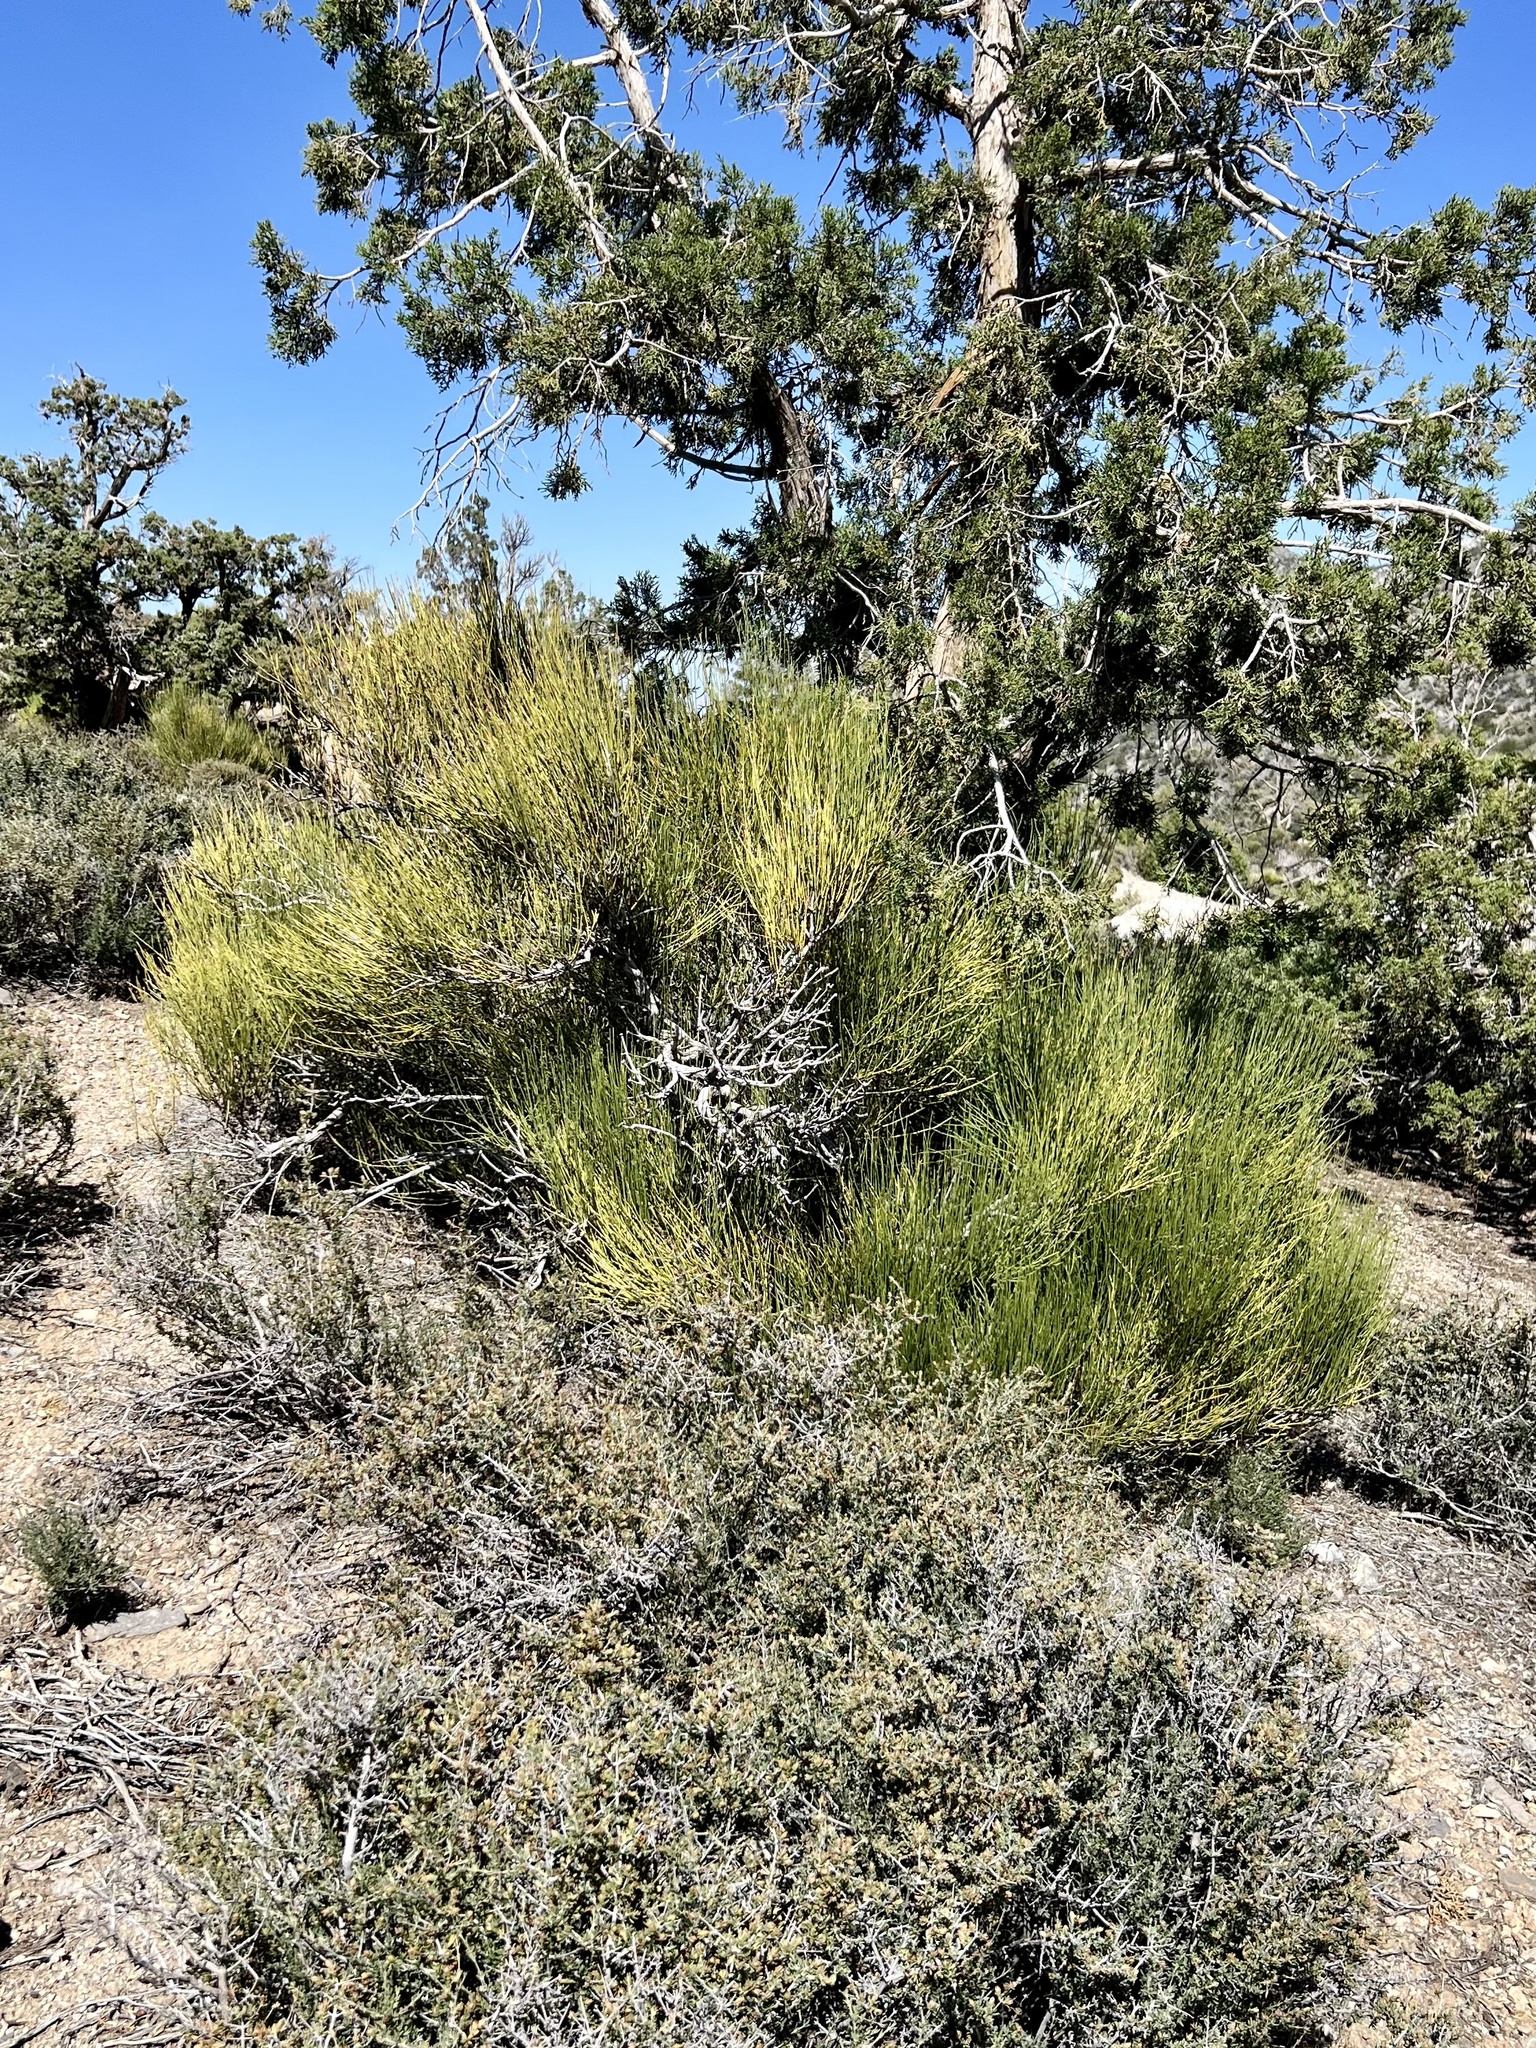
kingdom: Plantae
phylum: Tracheophyta
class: Gnetopsida
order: Ephedrales
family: Ephedraceae
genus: Ephedra
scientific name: Ephedra viridis
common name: Green ephedra
